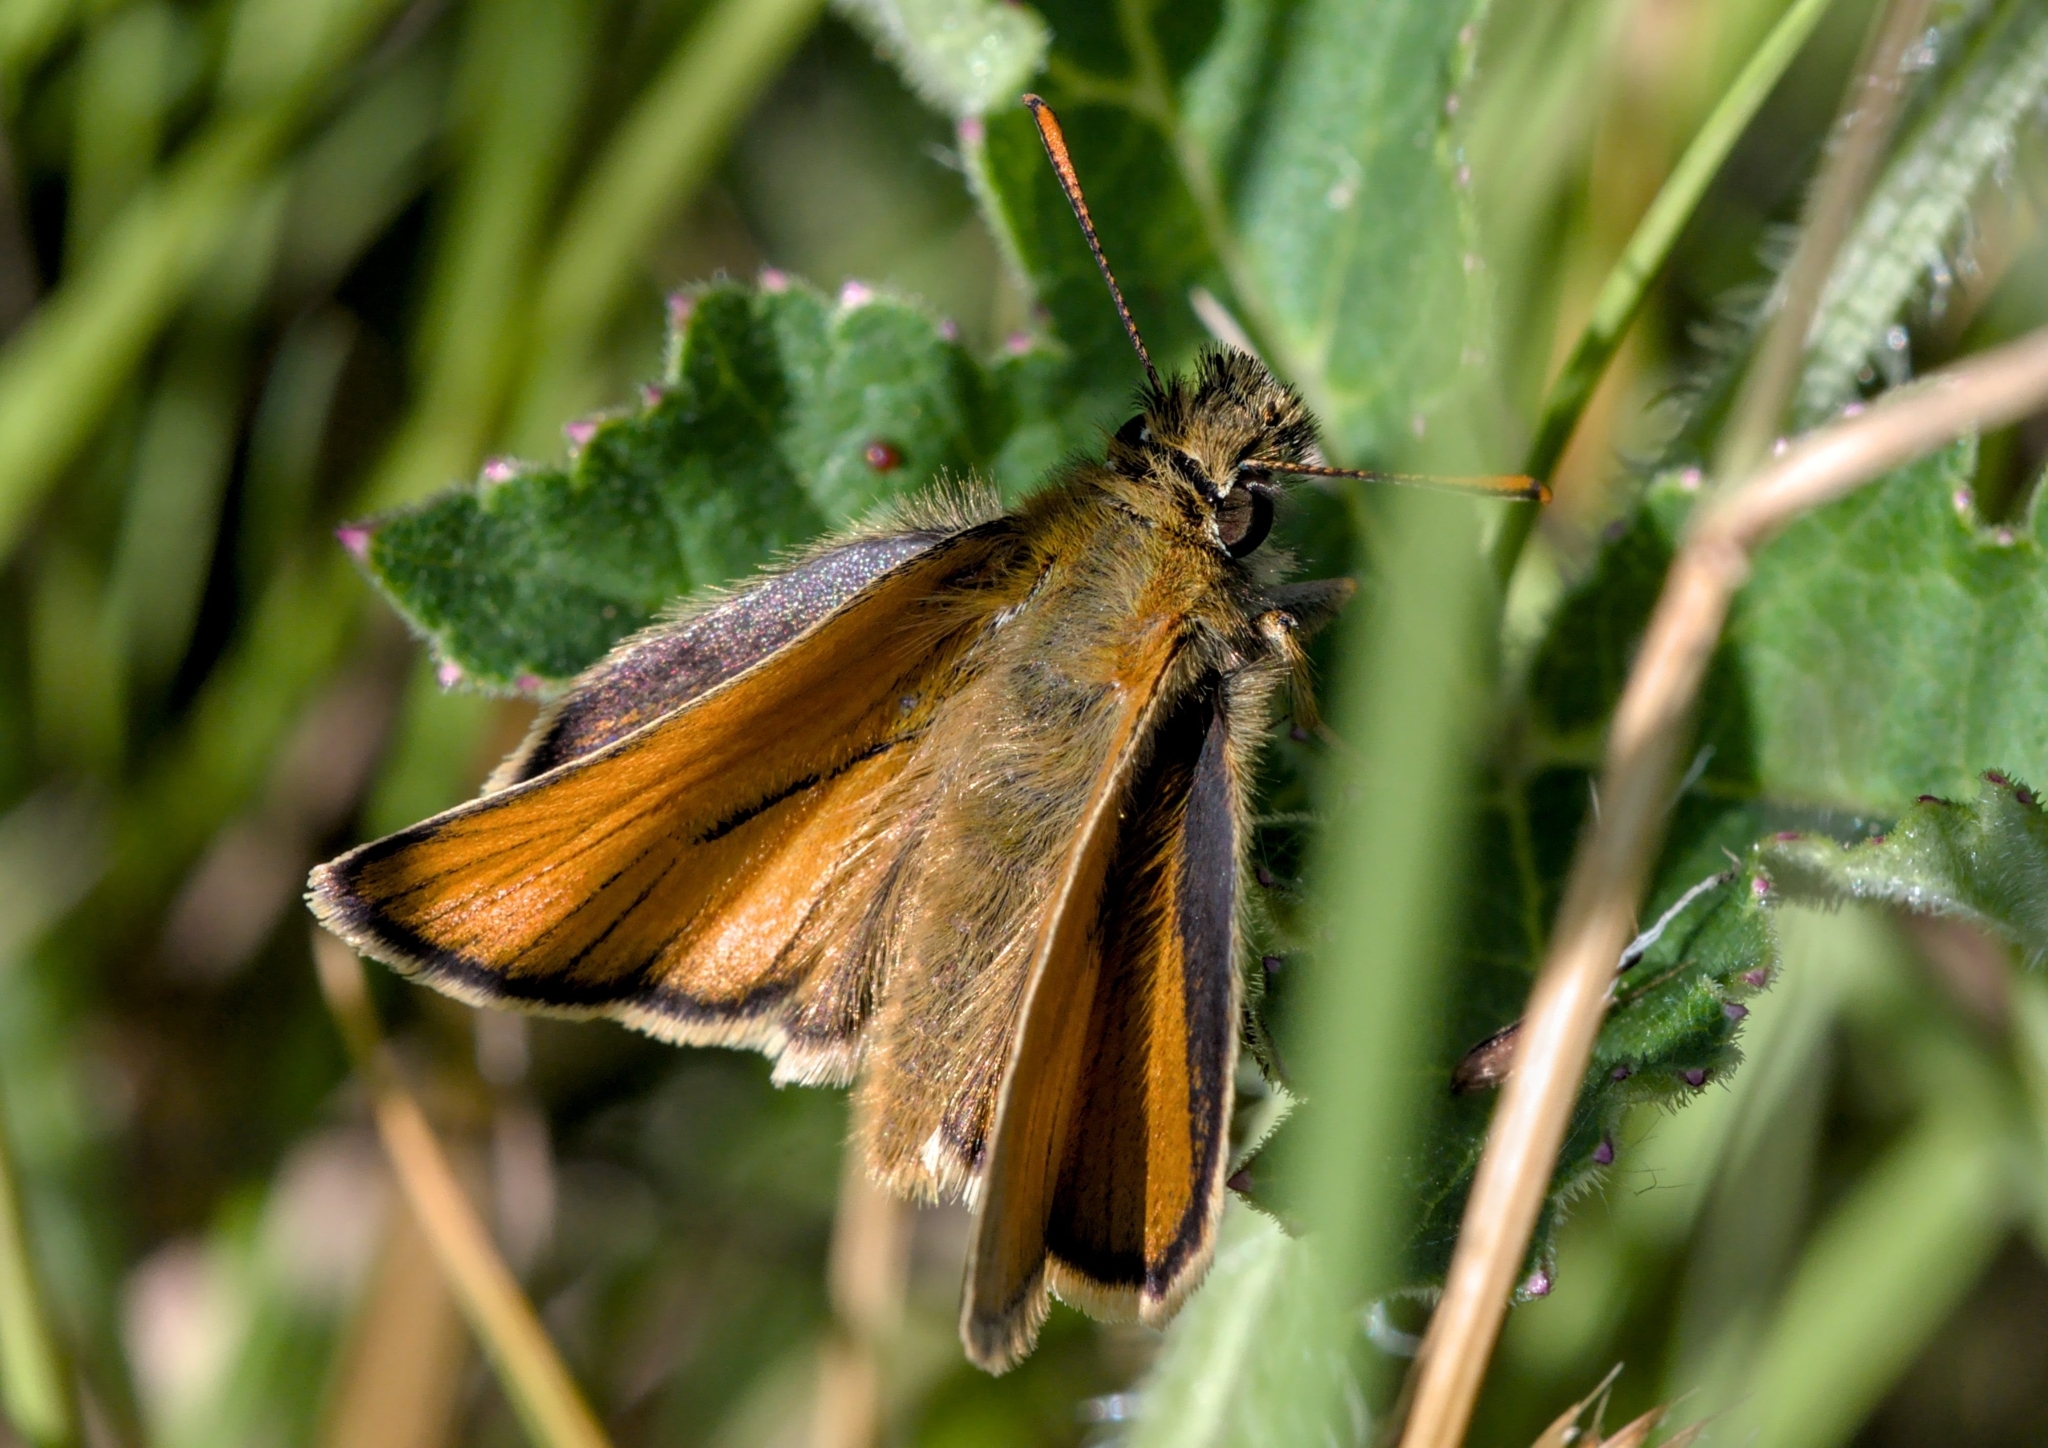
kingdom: Animalia
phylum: Arthropoda
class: Insecta
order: Lepidoptera
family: Hesperiidae
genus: Thymelicus
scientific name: Thymelicus sylvestris
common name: Small skipper
